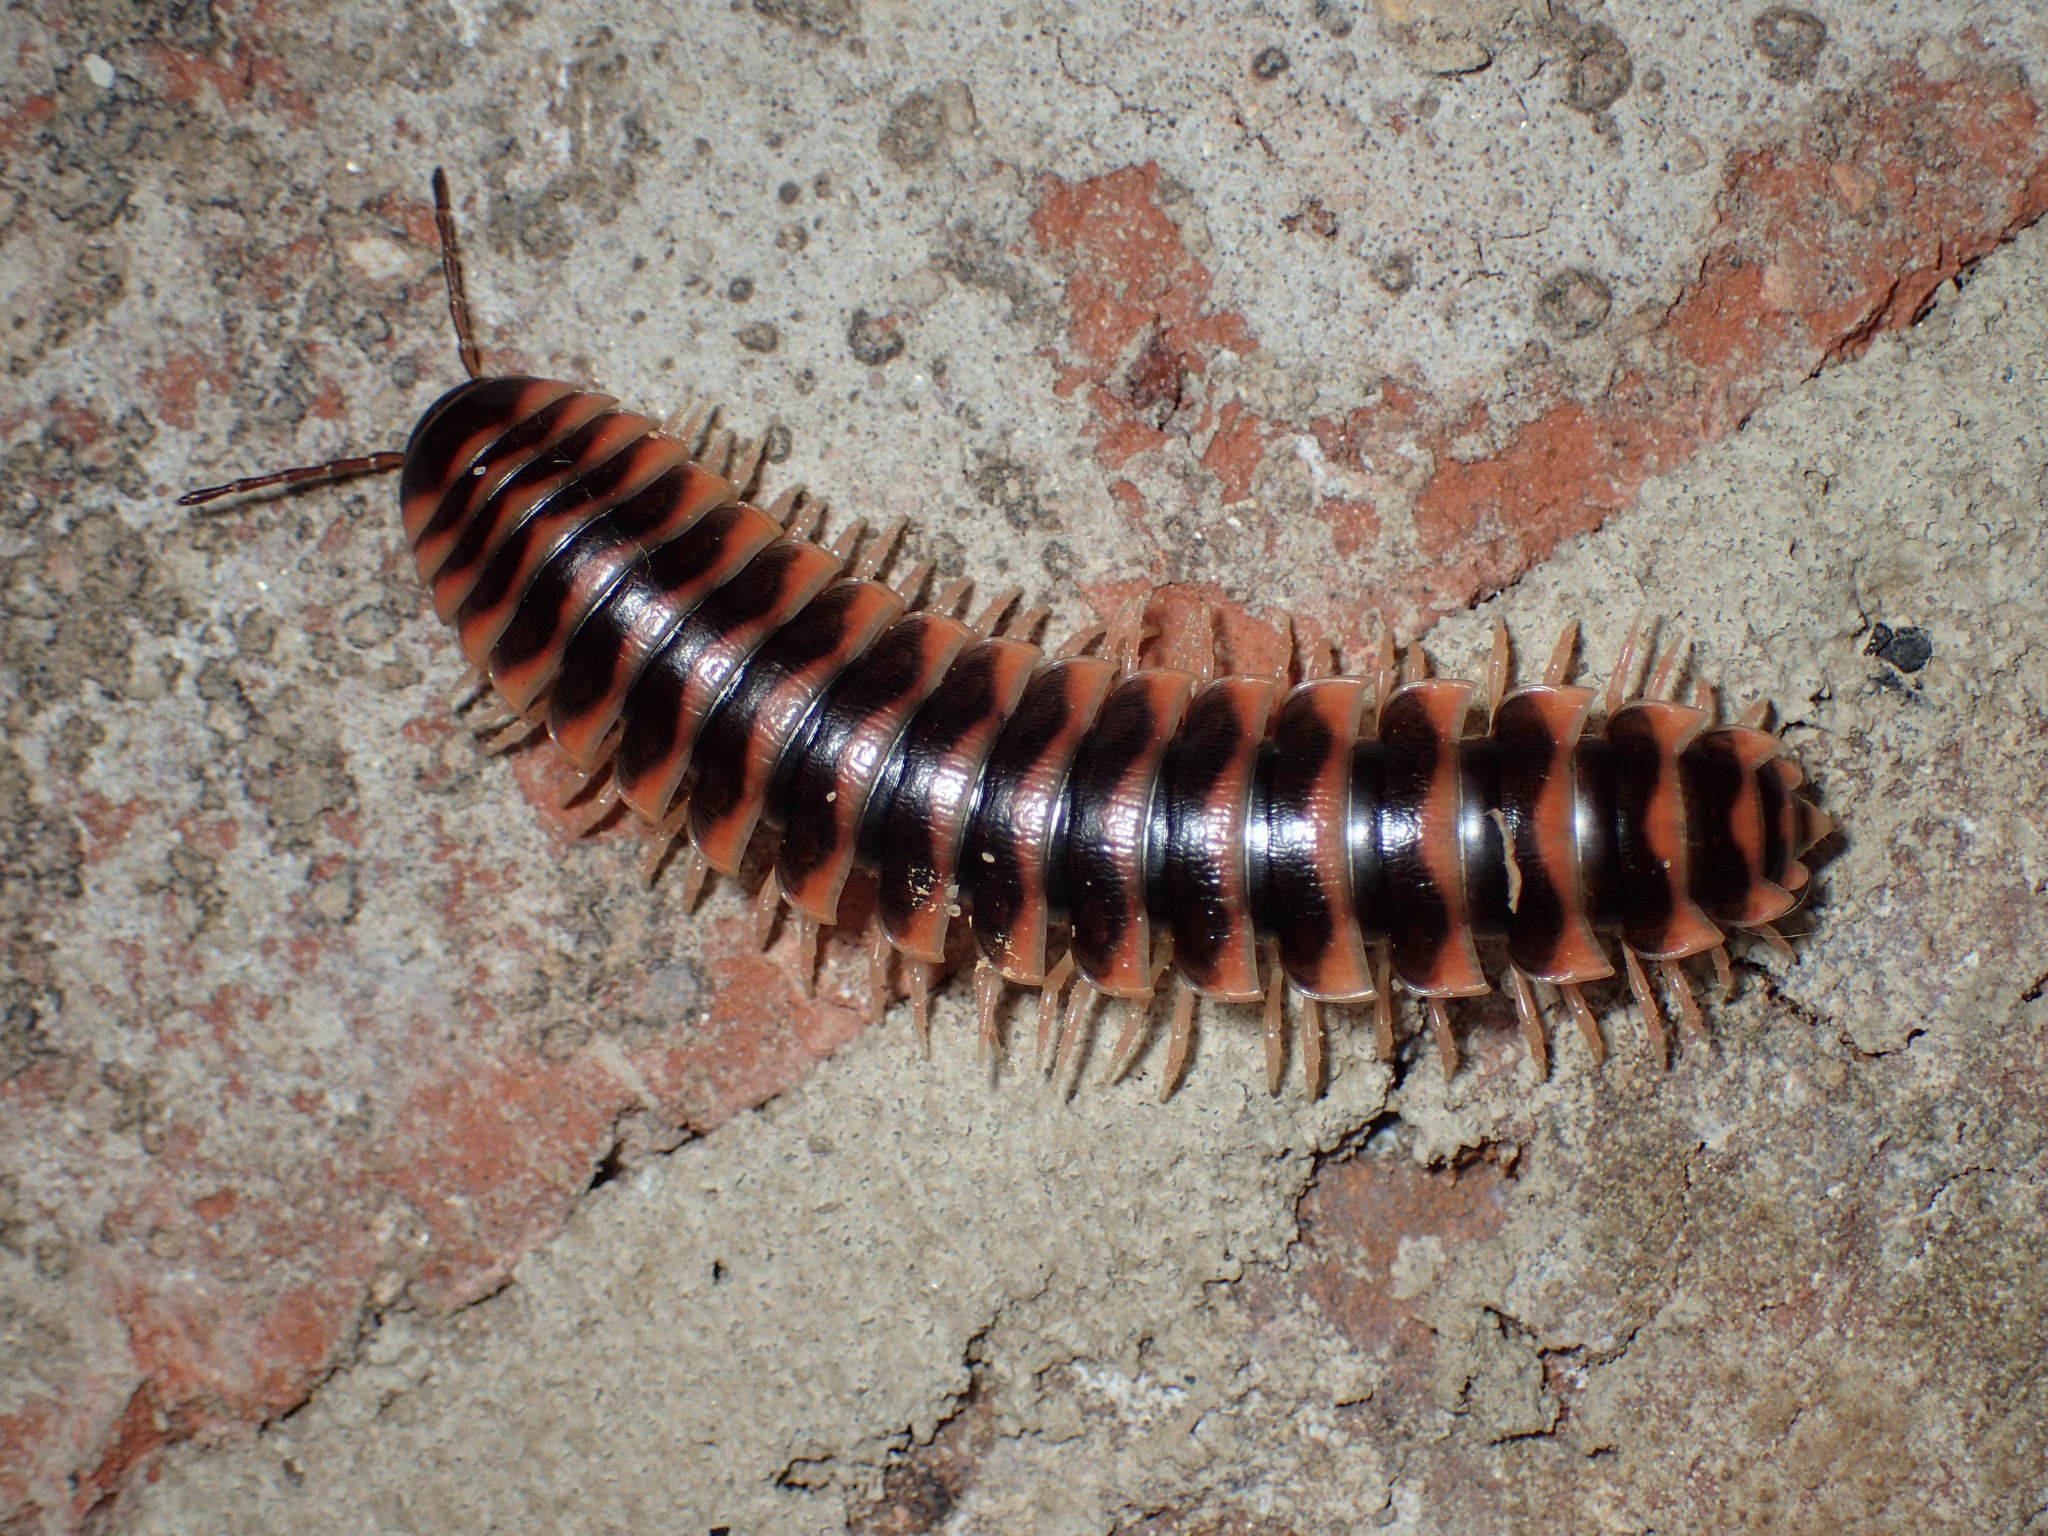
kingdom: Animalia
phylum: Arthropoda
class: Diplopoda
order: Polydesmida
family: Xystodesmidae
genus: Cherokia
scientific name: Cherokia georgiana
